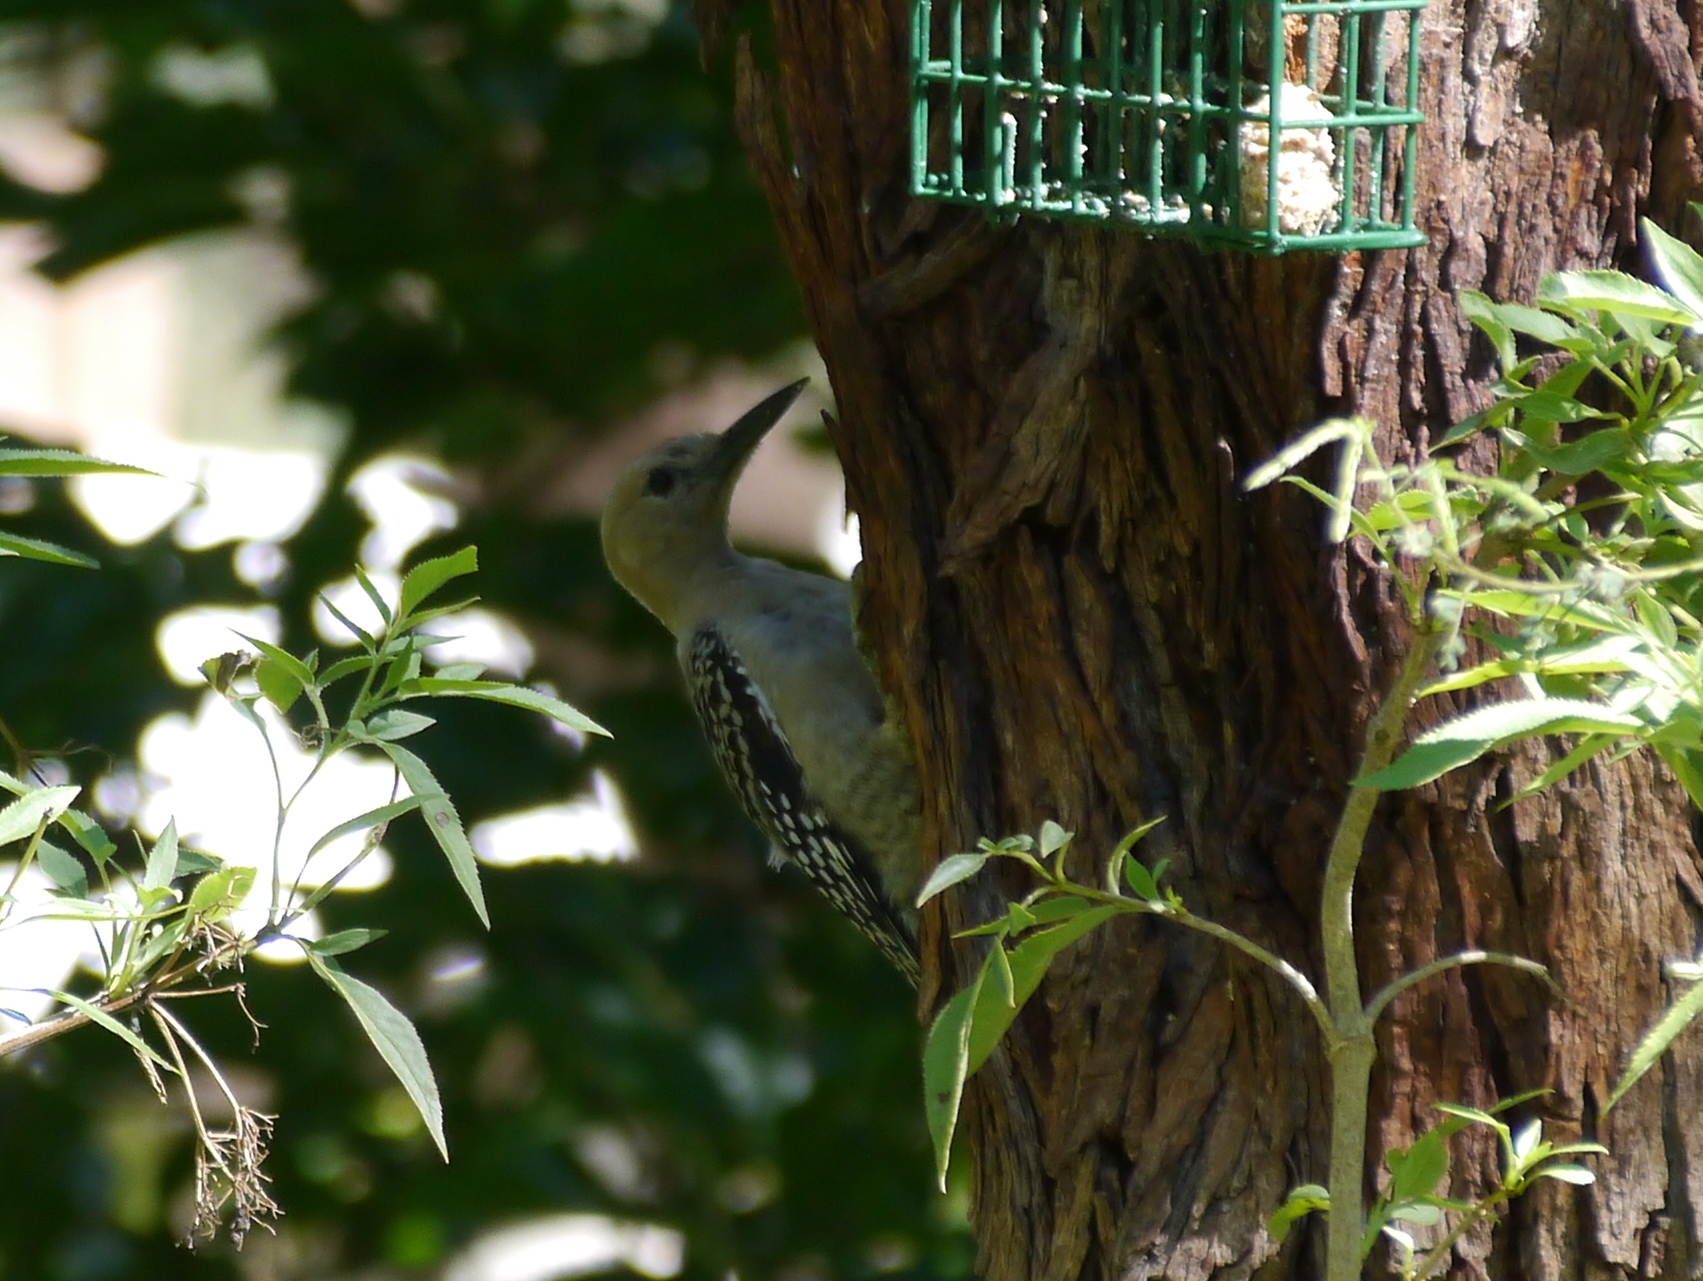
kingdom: Animalia
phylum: Chordata
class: Aves
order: Piciformes
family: Picidae
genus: Melanerpes
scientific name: Melanerpes uropygialis
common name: Gila woodpecker
